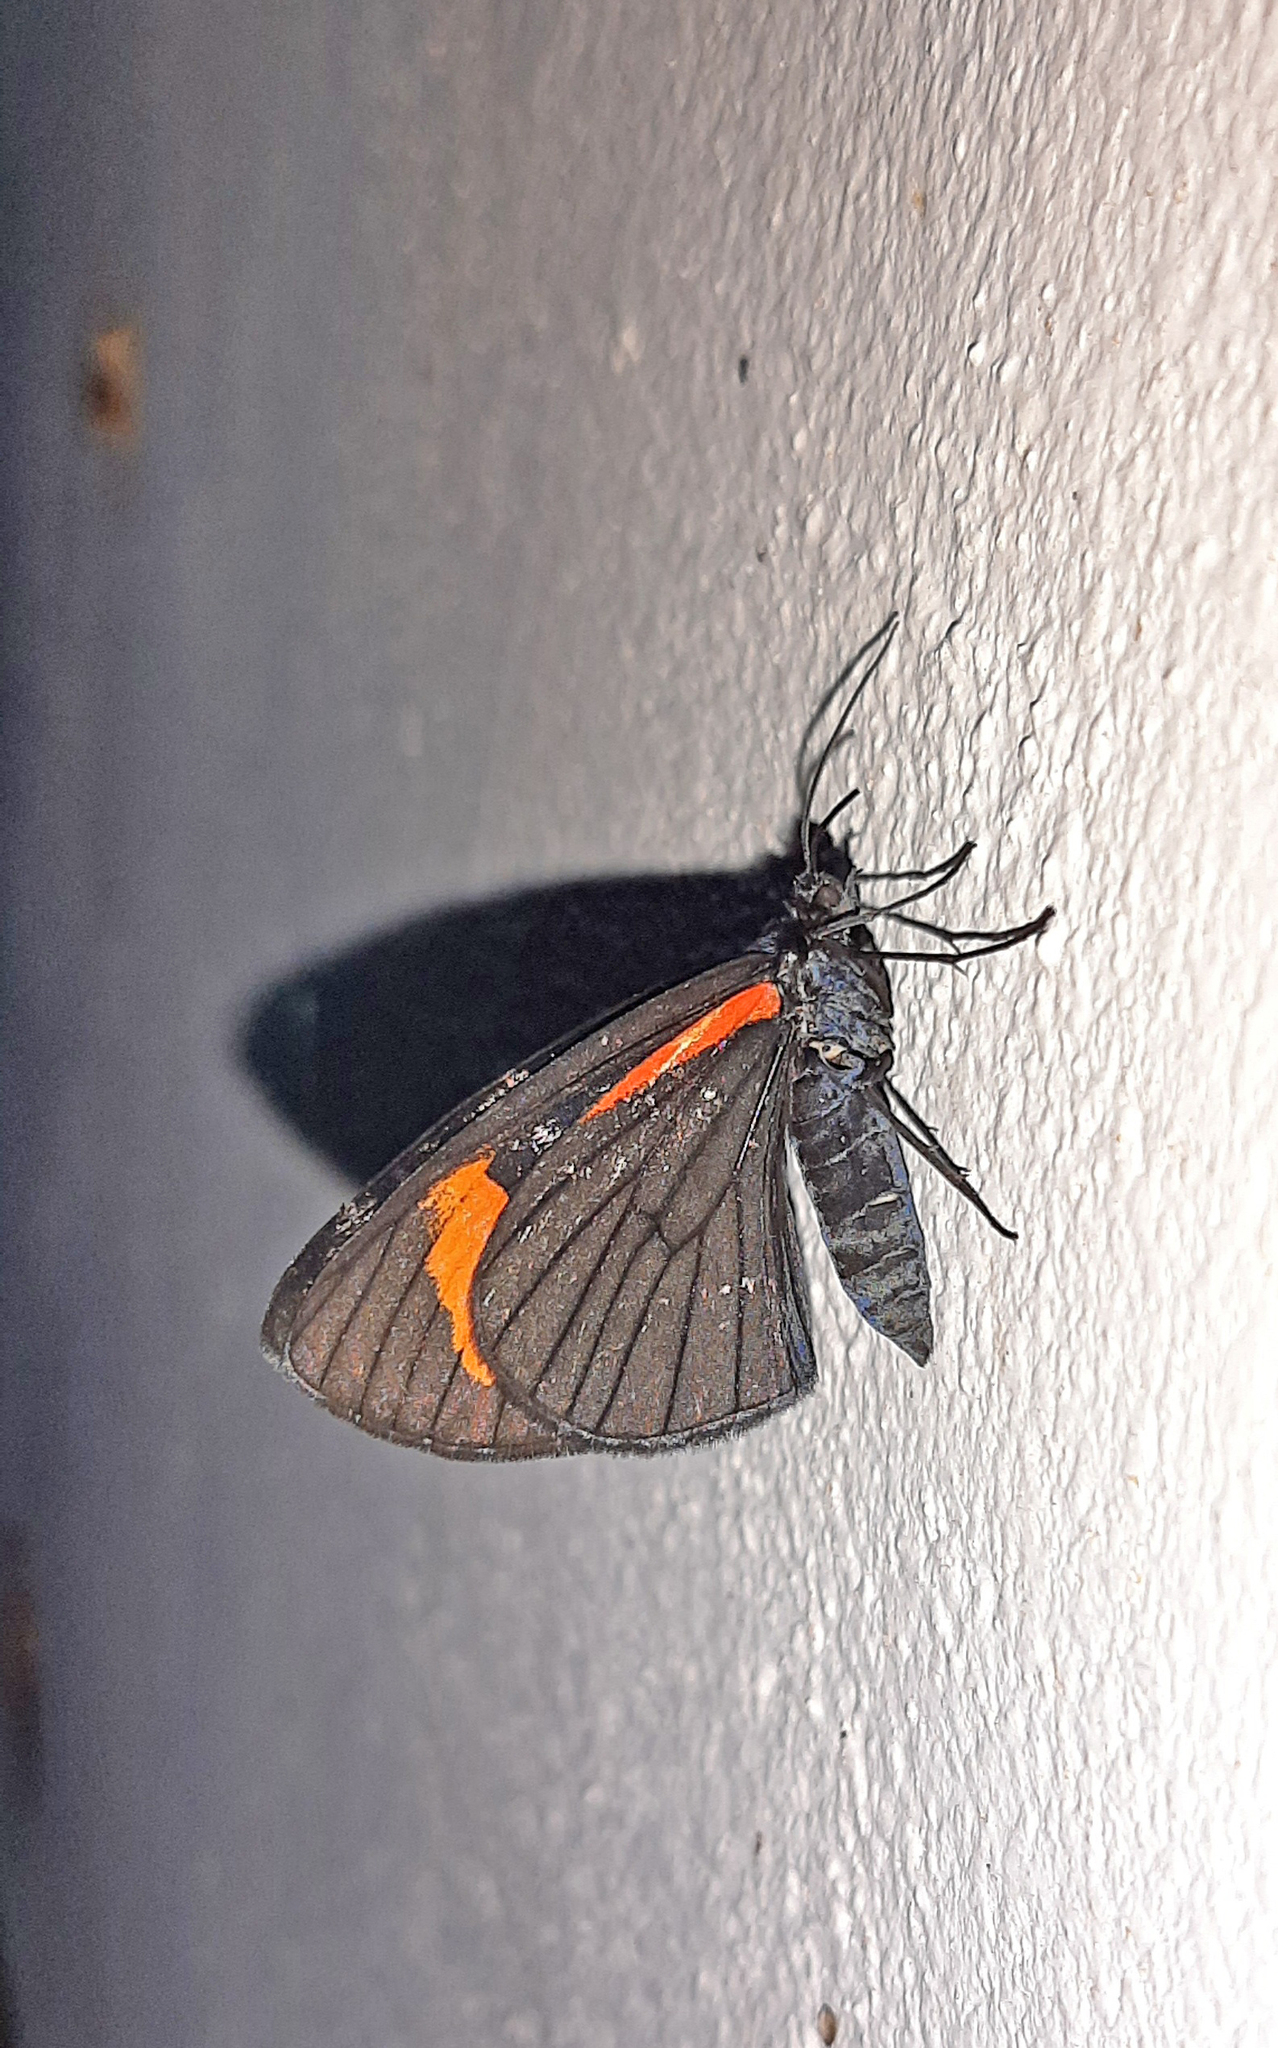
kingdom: Animalia
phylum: Arthropoda
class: Insecta
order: Lepidoptera
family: Geometridae
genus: Siosta
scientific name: Siosta bifasciata
